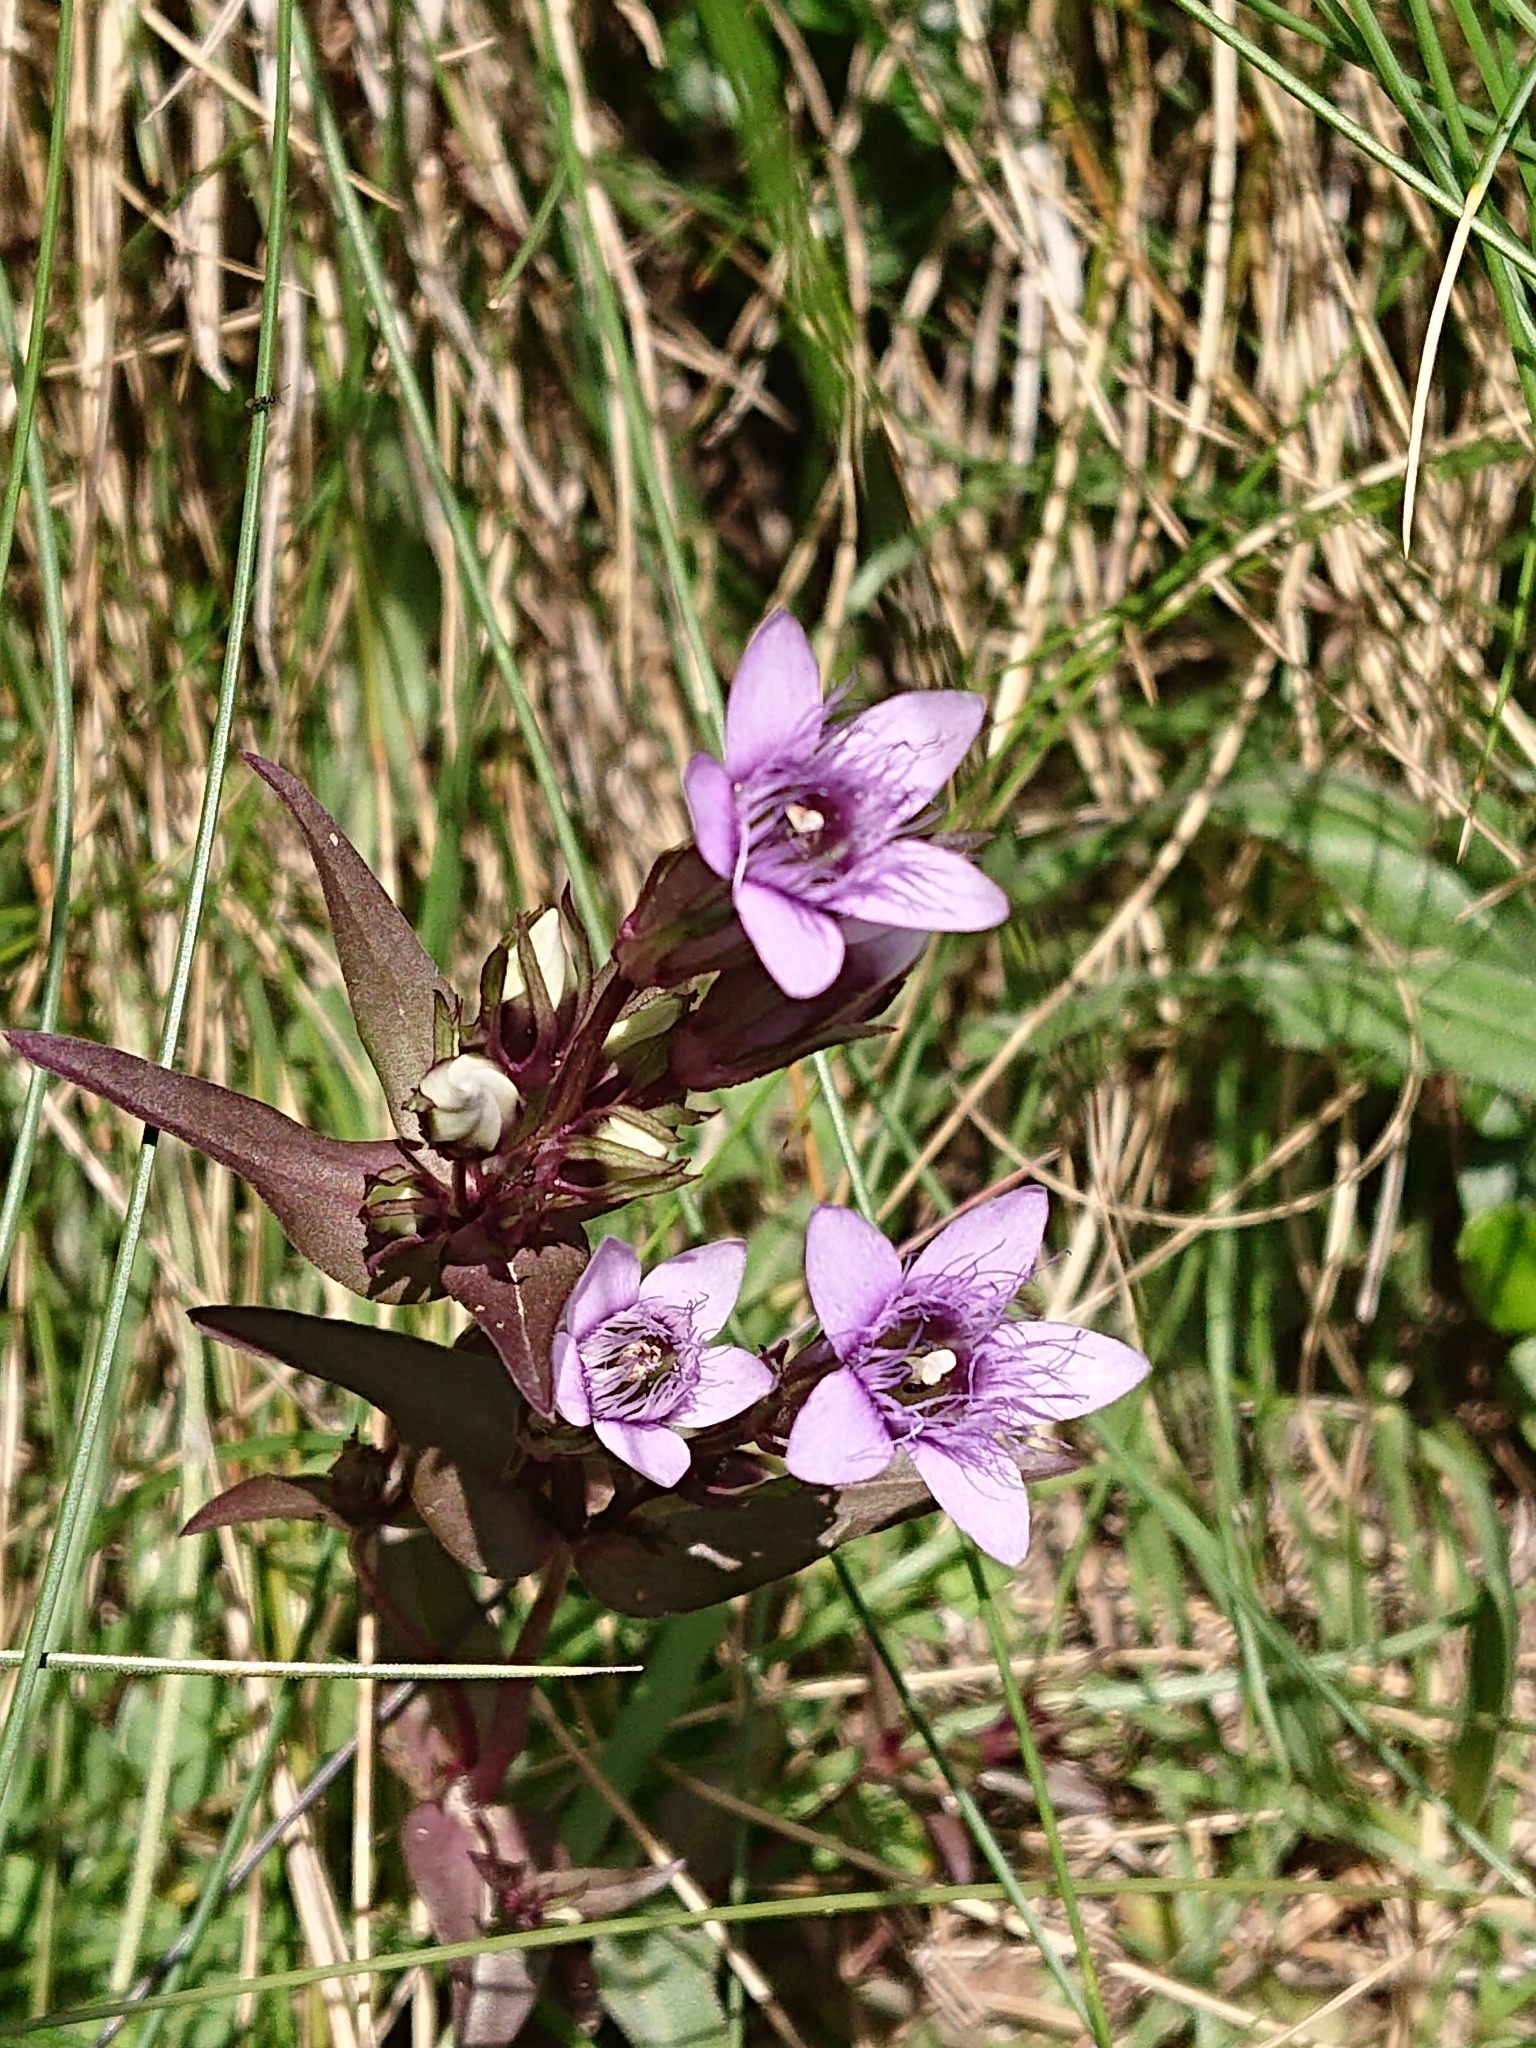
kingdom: Plantae
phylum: Tracheophyta
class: Magnoliopsida
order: Gentianales
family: Gentianaceae
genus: Gentianella
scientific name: Gentianella ramosa
